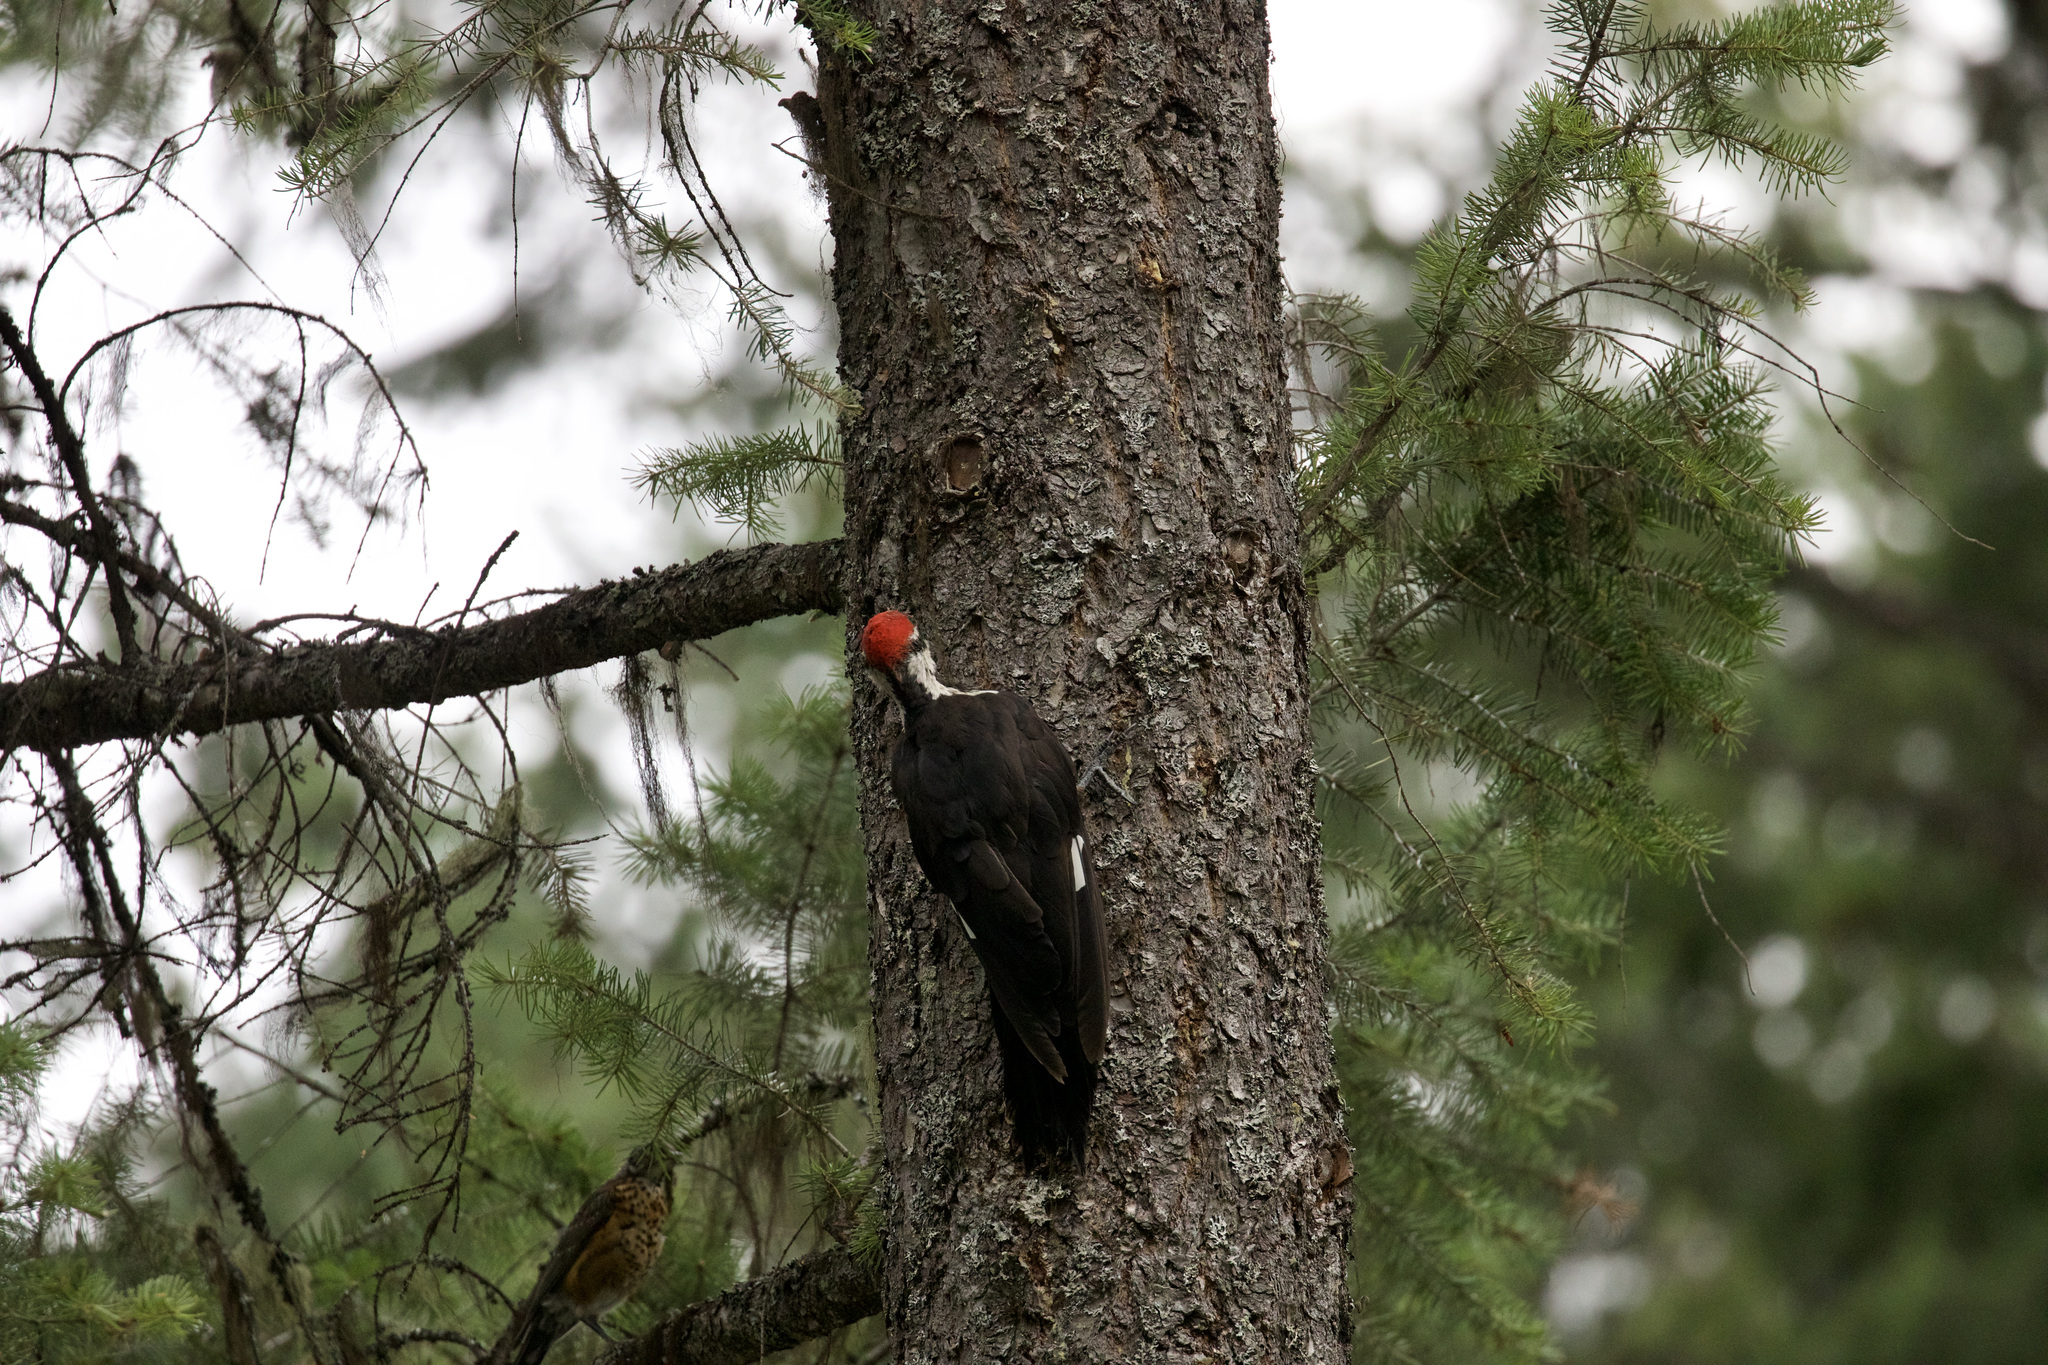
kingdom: Animalia
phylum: Chordata
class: Aves
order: Piciformes
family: Picidae
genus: Dryocopus
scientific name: Dryocopus pileatus
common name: Pileated woodpecker
